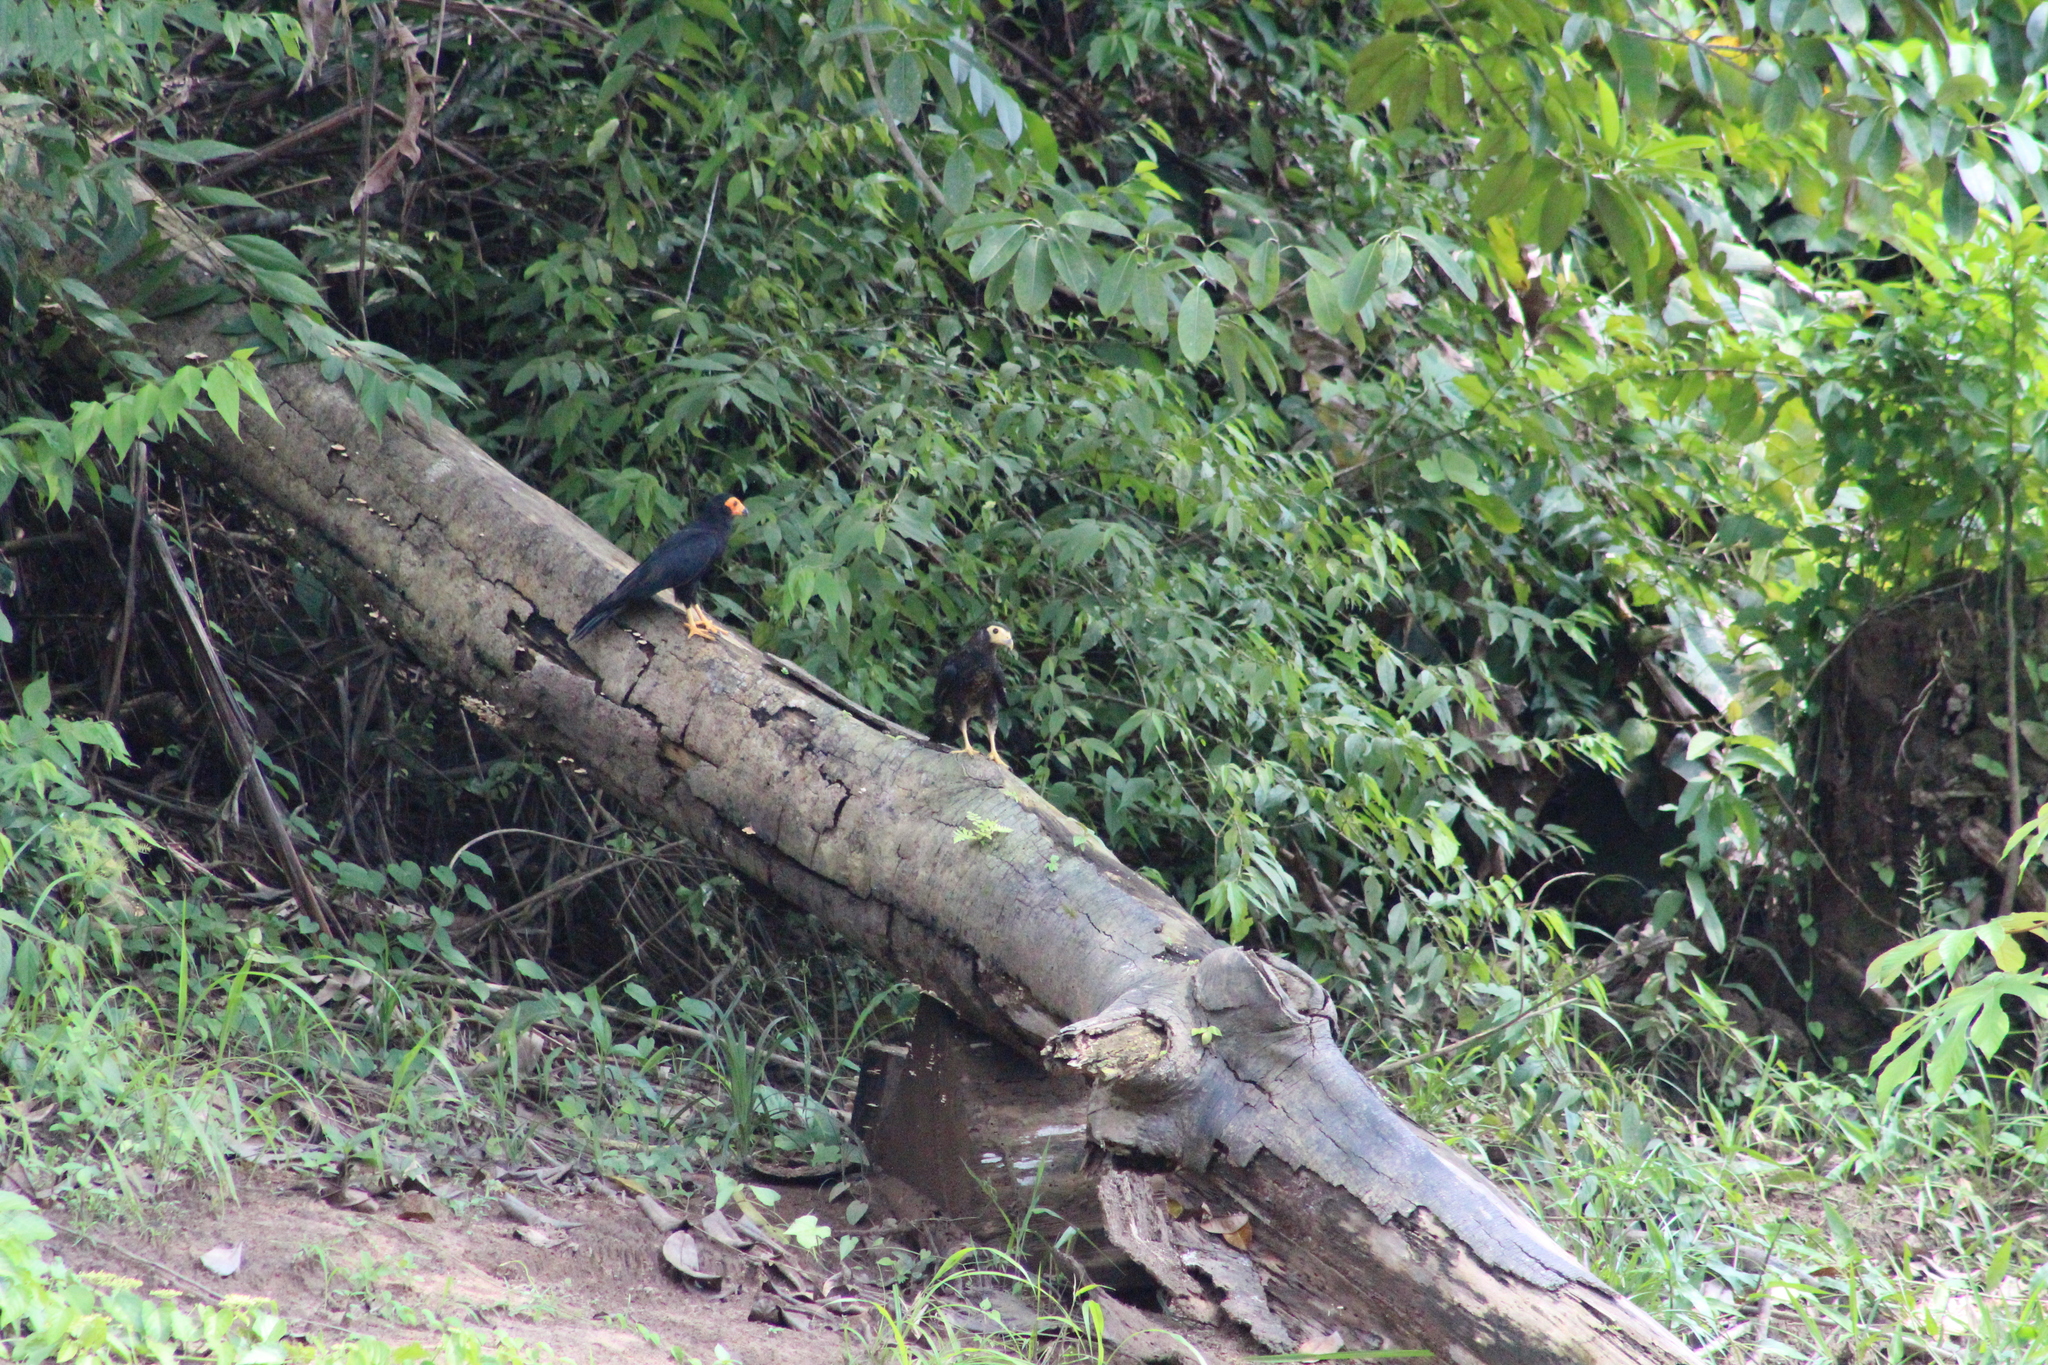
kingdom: Animalia
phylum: Chordata
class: Aves
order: Falconiformes
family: Falconidae
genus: Daptrius
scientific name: Daptrius ater
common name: Black caracara
